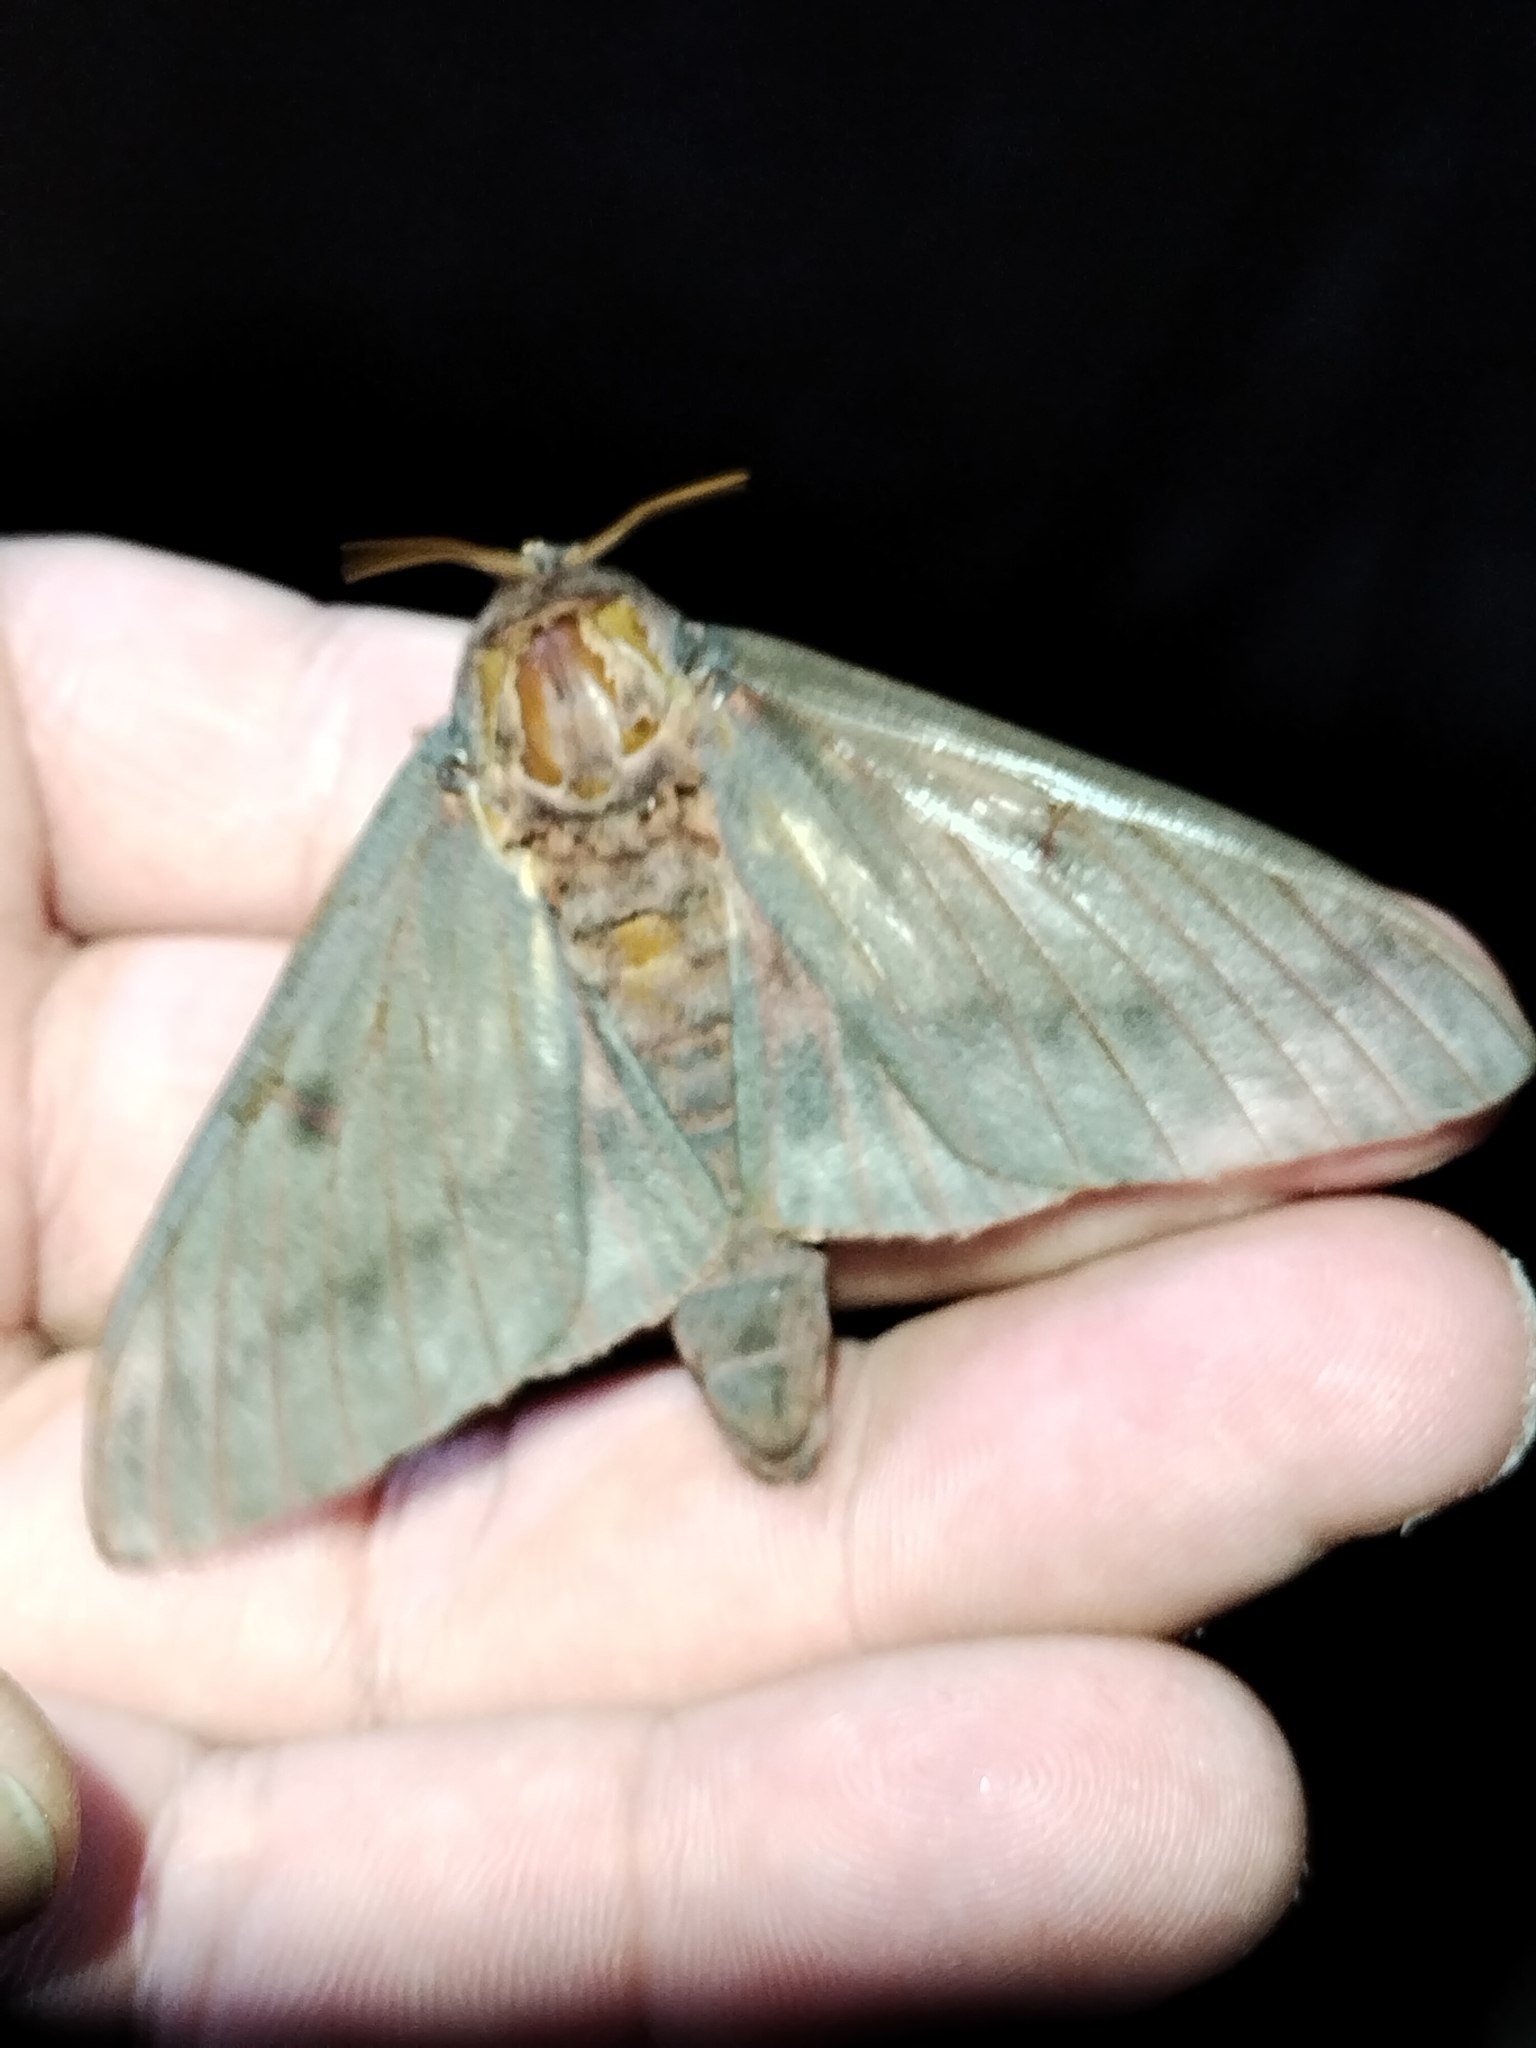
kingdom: Animalia
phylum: Arthropoda
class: Insecta
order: Lepidoptera
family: Saturniidae
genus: Citheronia
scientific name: Citheronia sepulcralis
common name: Pine-devil moth
